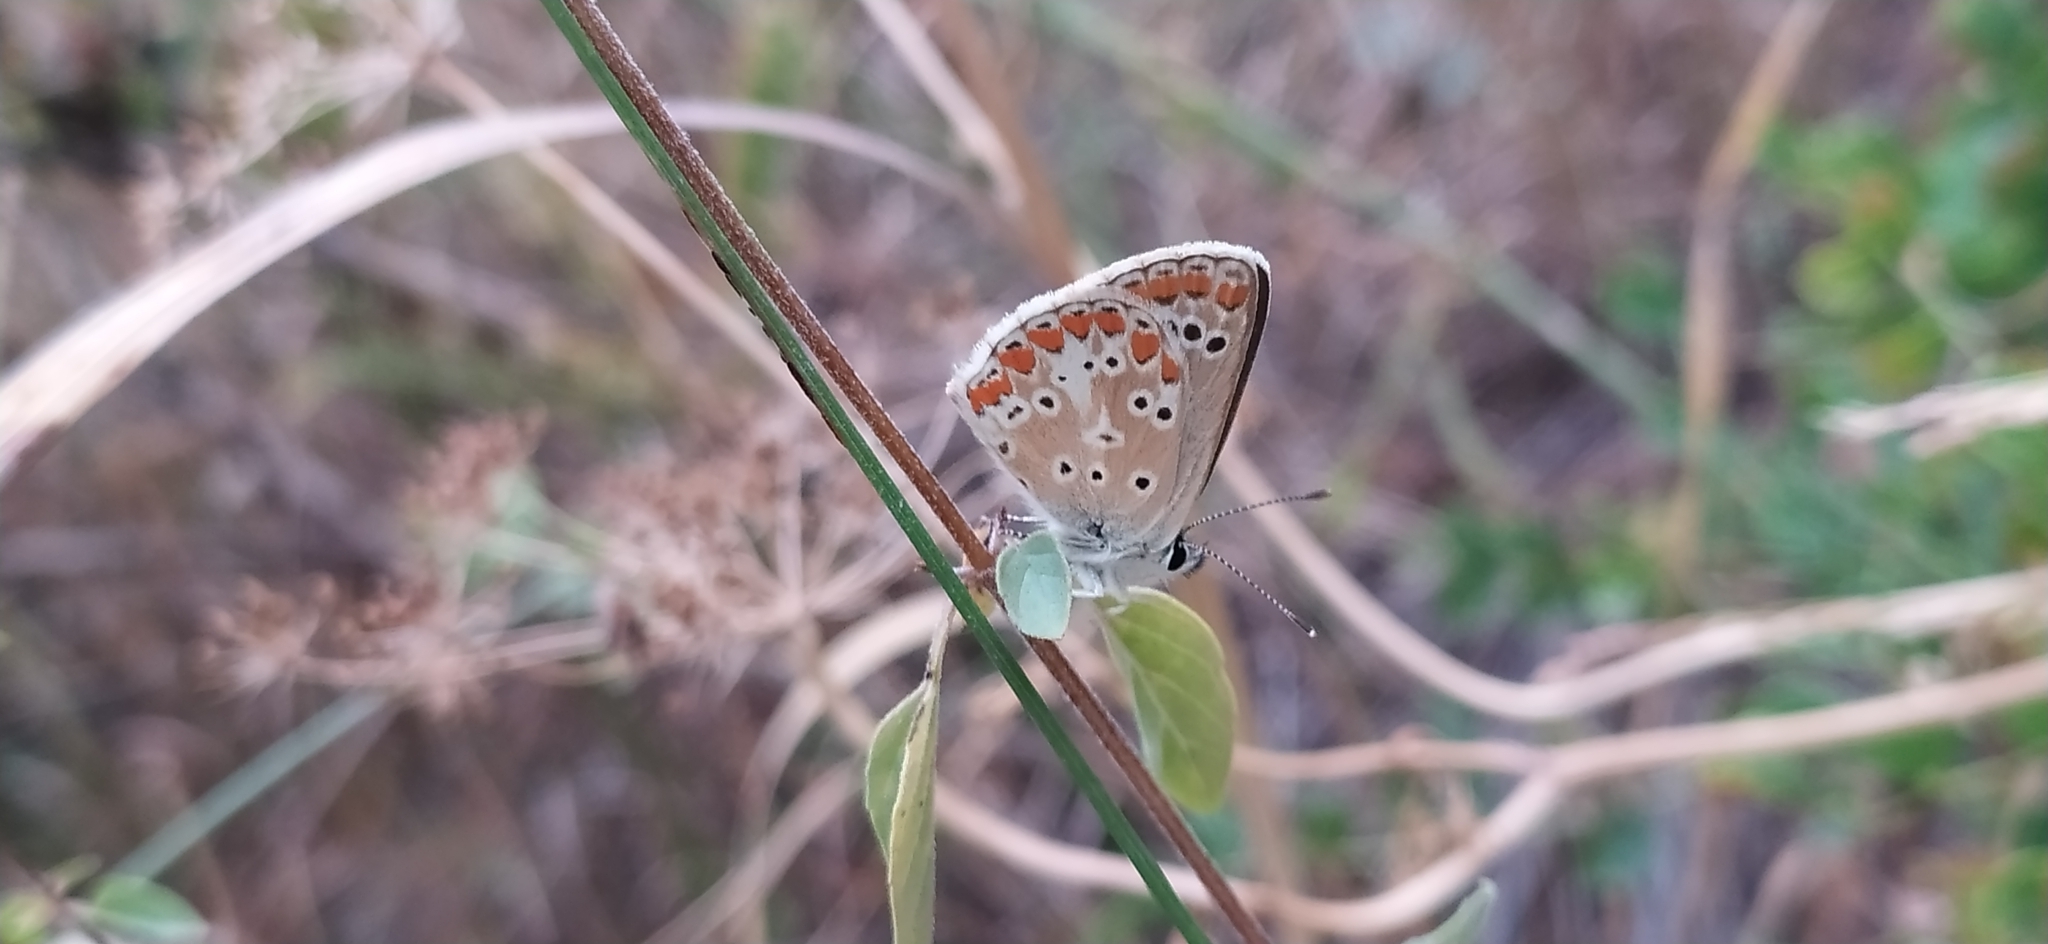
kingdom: Animalia
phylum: Arthropoda
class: Insecta
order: Lepidoptera
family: Lycaenidae
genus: Aricia
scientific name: Aricia agestis
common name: Brown argus
